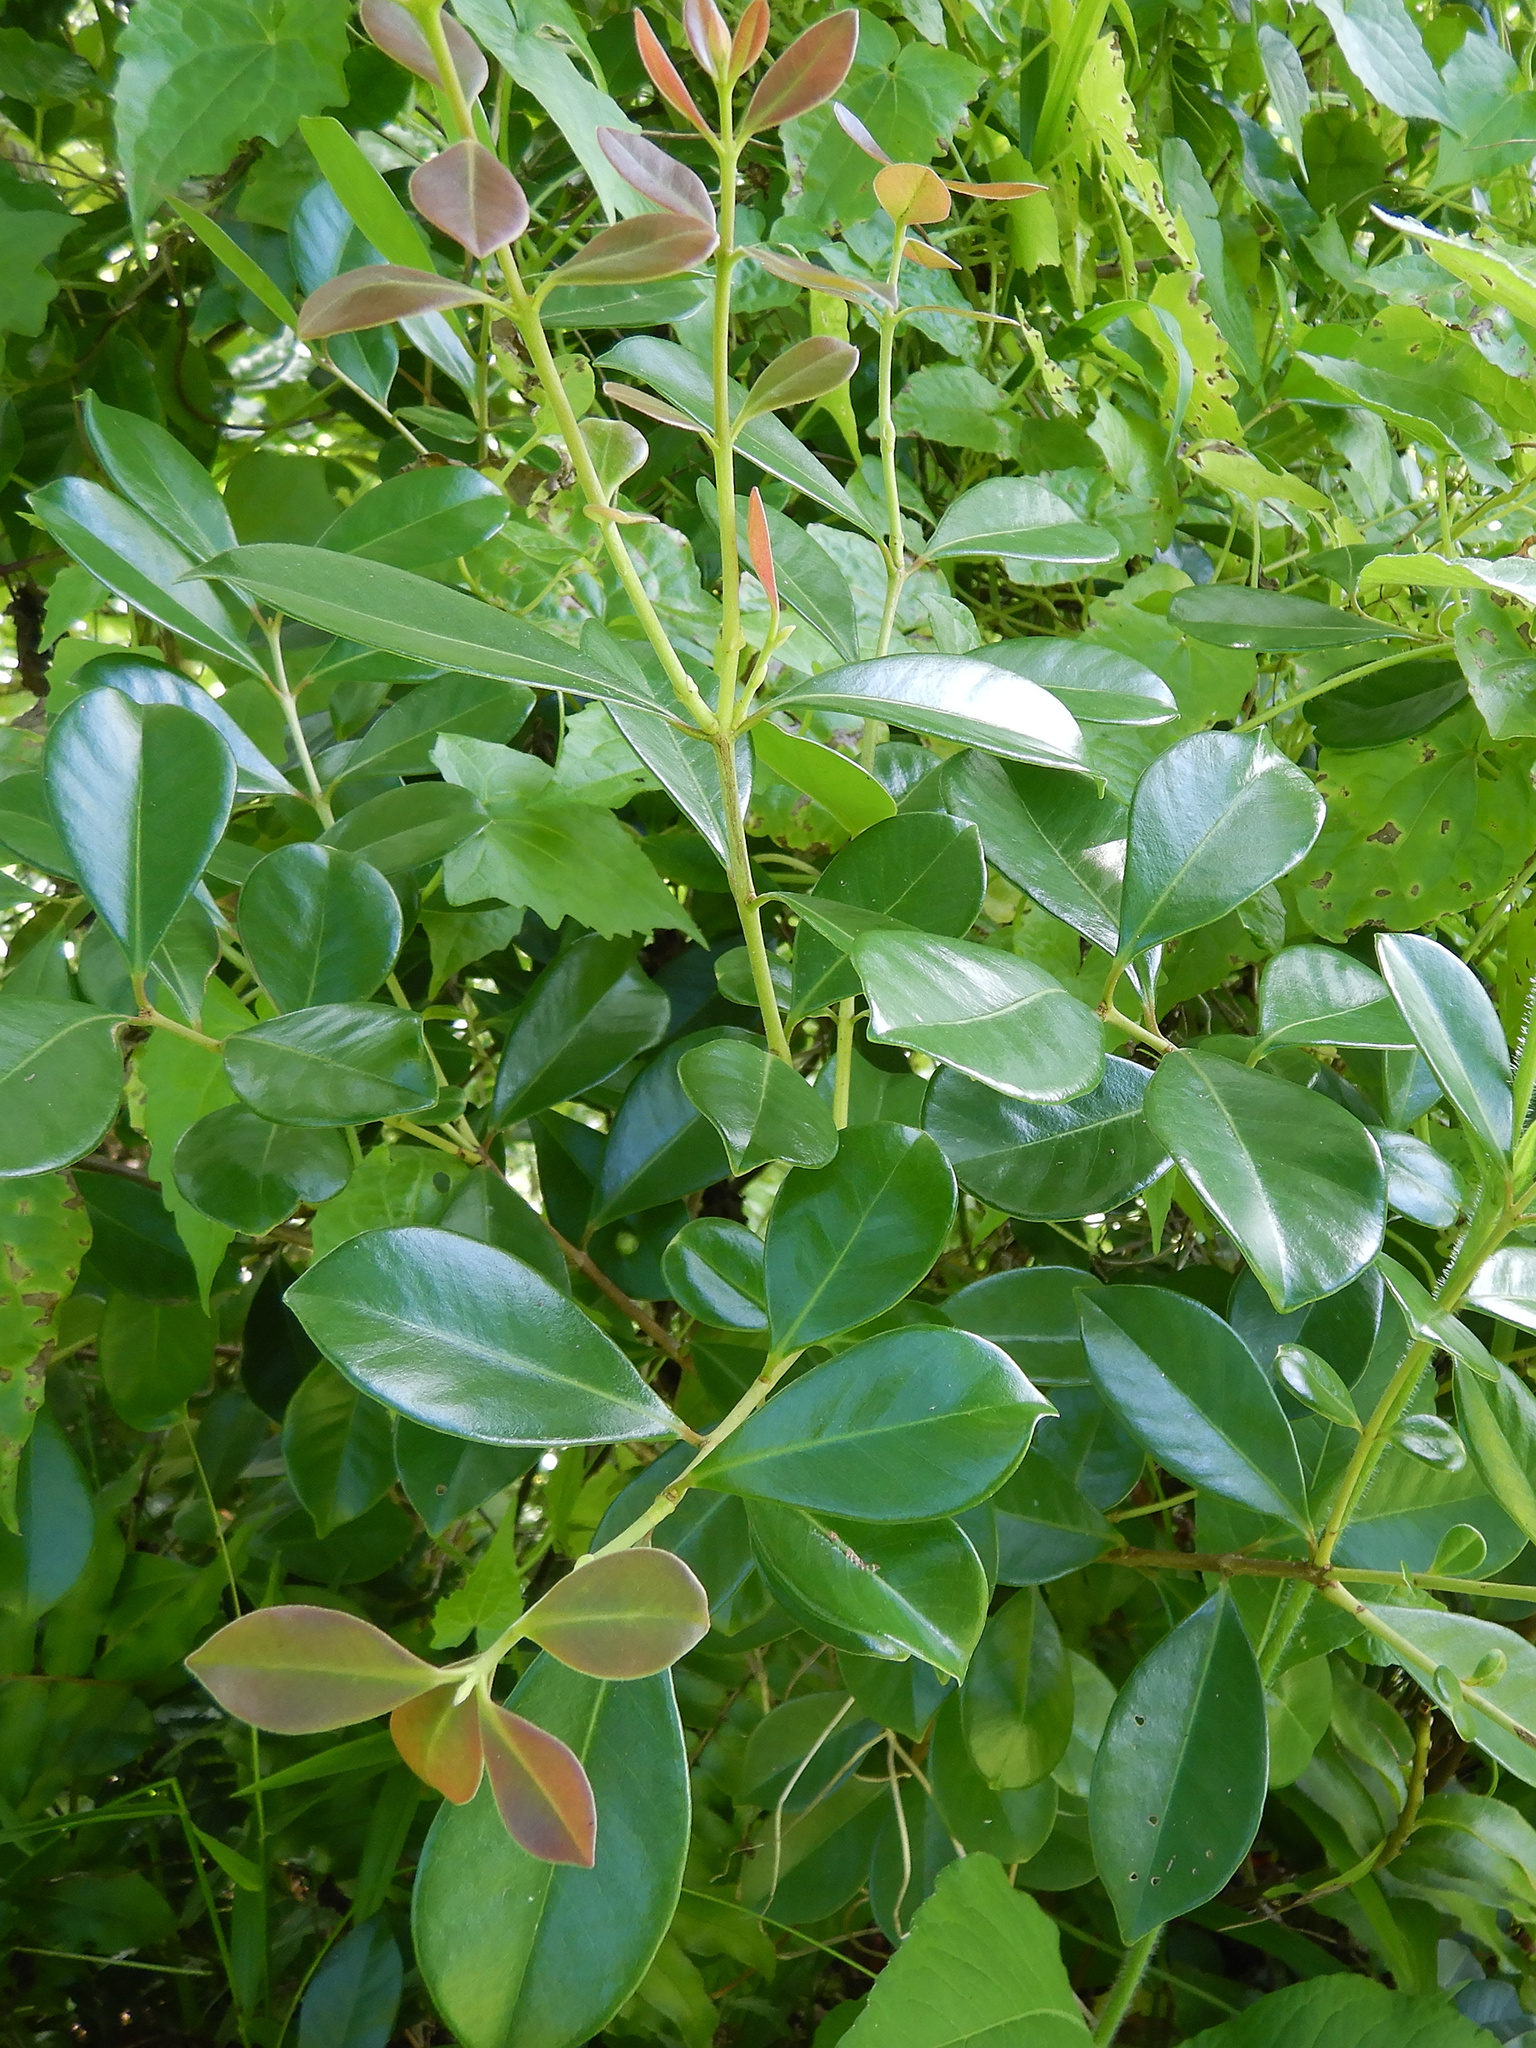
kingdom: Plantae
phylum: Tracheophyta
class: Magnoliopsida
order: Myrtales
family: Myrtaceae
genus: Psidium
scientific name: Psidium cattleianum
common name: Strawberry guava
